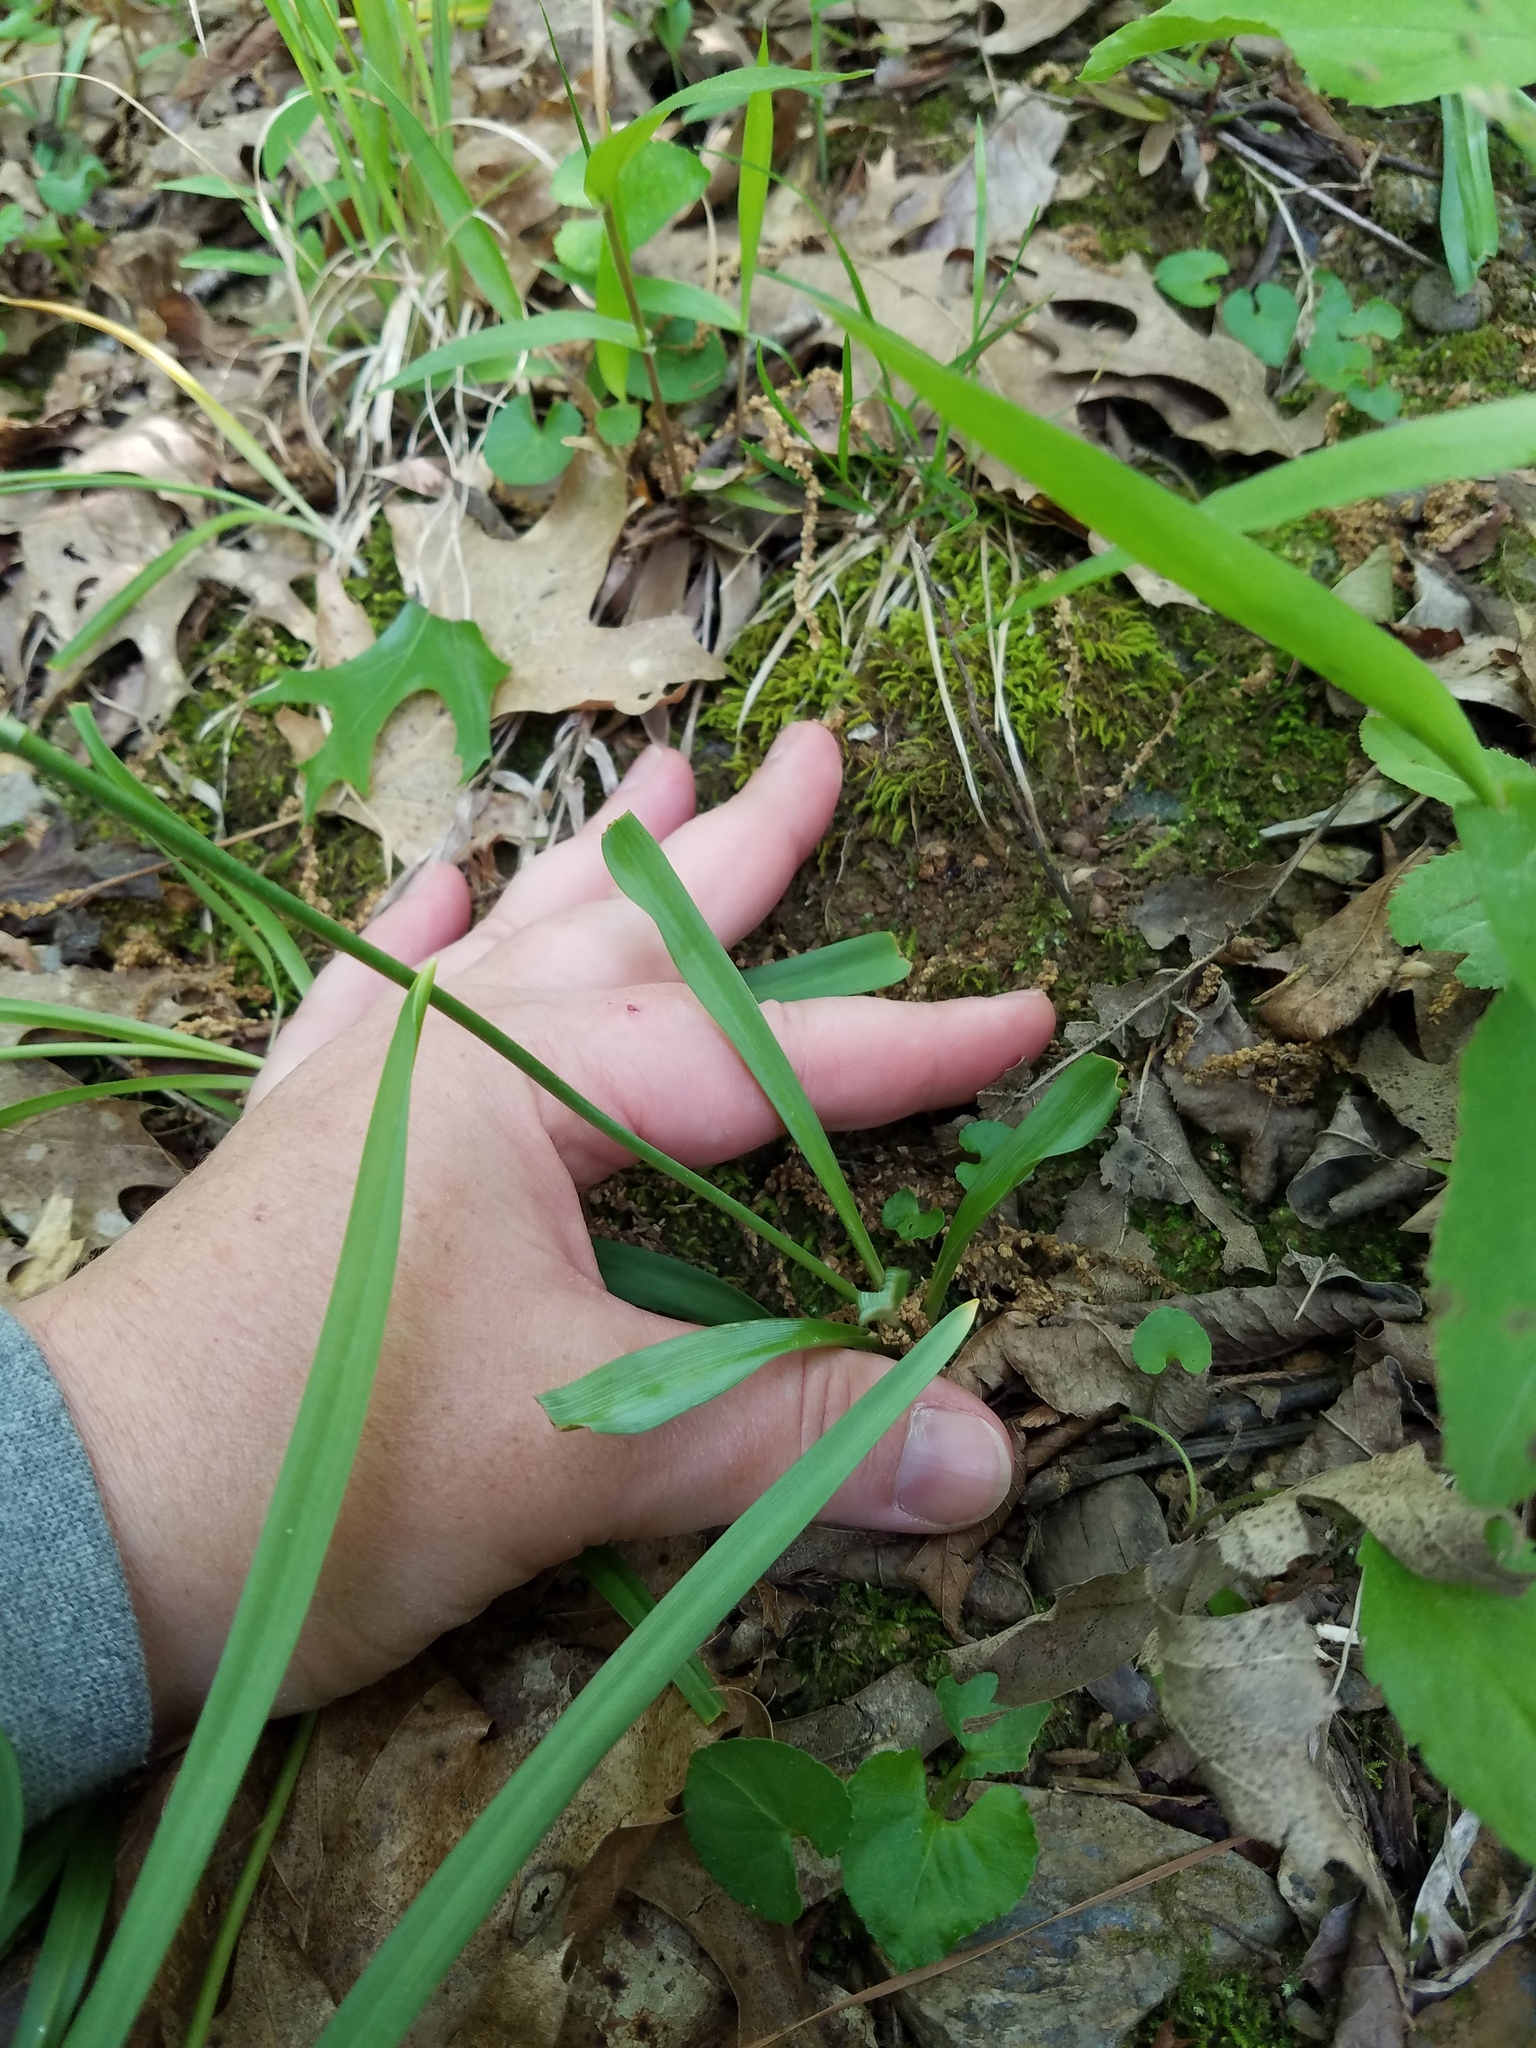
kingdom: Plantae
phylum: Tracheophyta
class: Liliopsida
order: Asparagales
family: Asparagaceae
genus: Camassia
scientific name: Camassia scilloides
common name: Wild hyacinth
